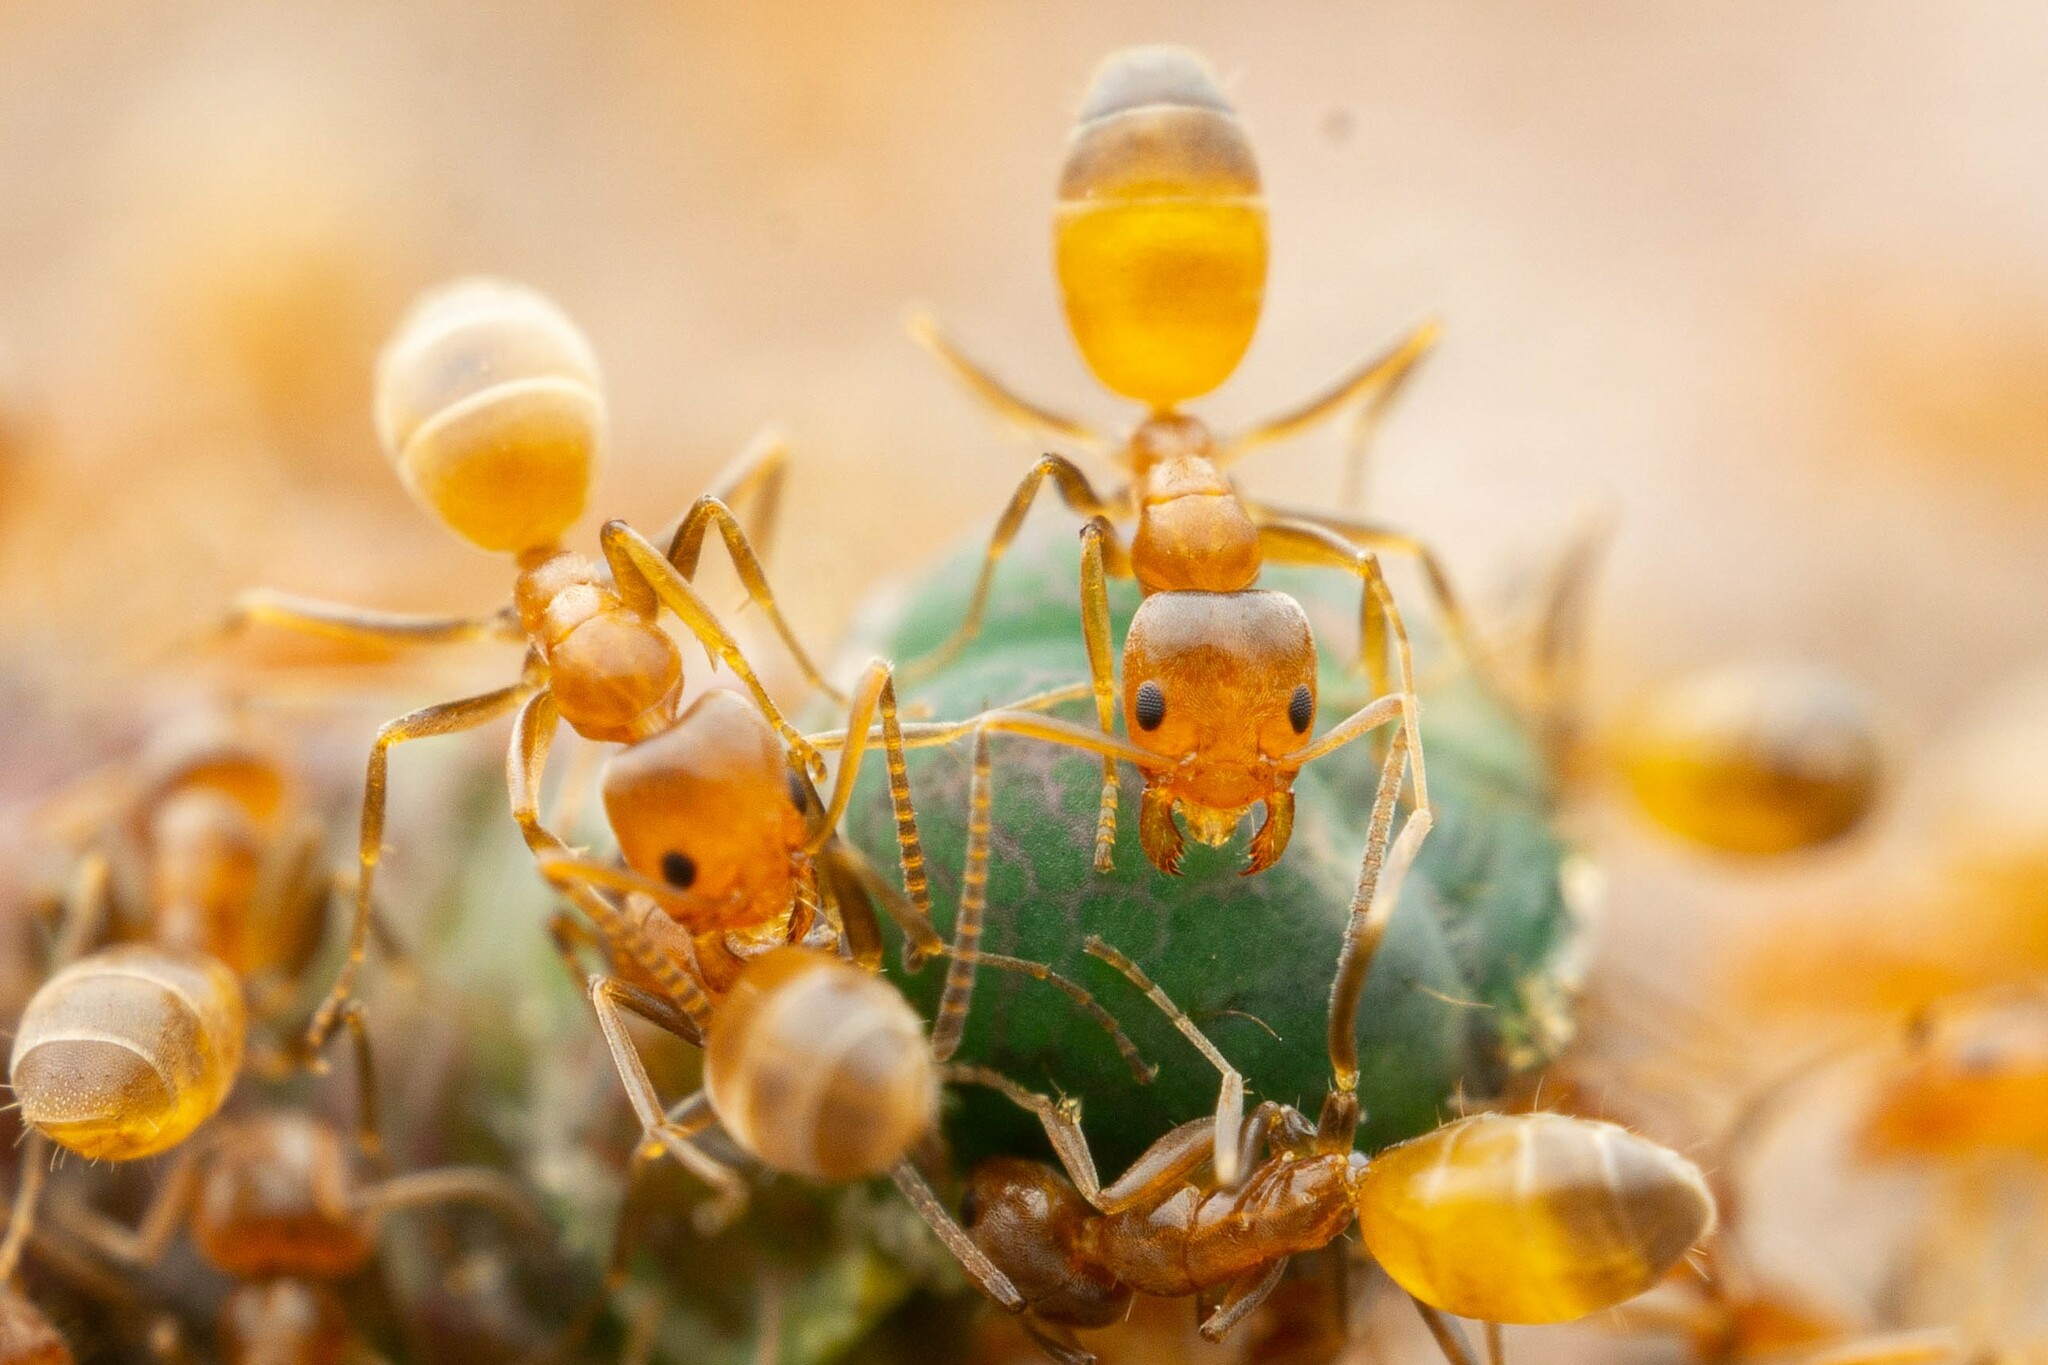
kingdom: Animalia
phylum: Arthropoda
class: Insecta
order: Hymenoptera
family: Formicidae
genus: Forelius
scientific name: Forelius pruinosus
